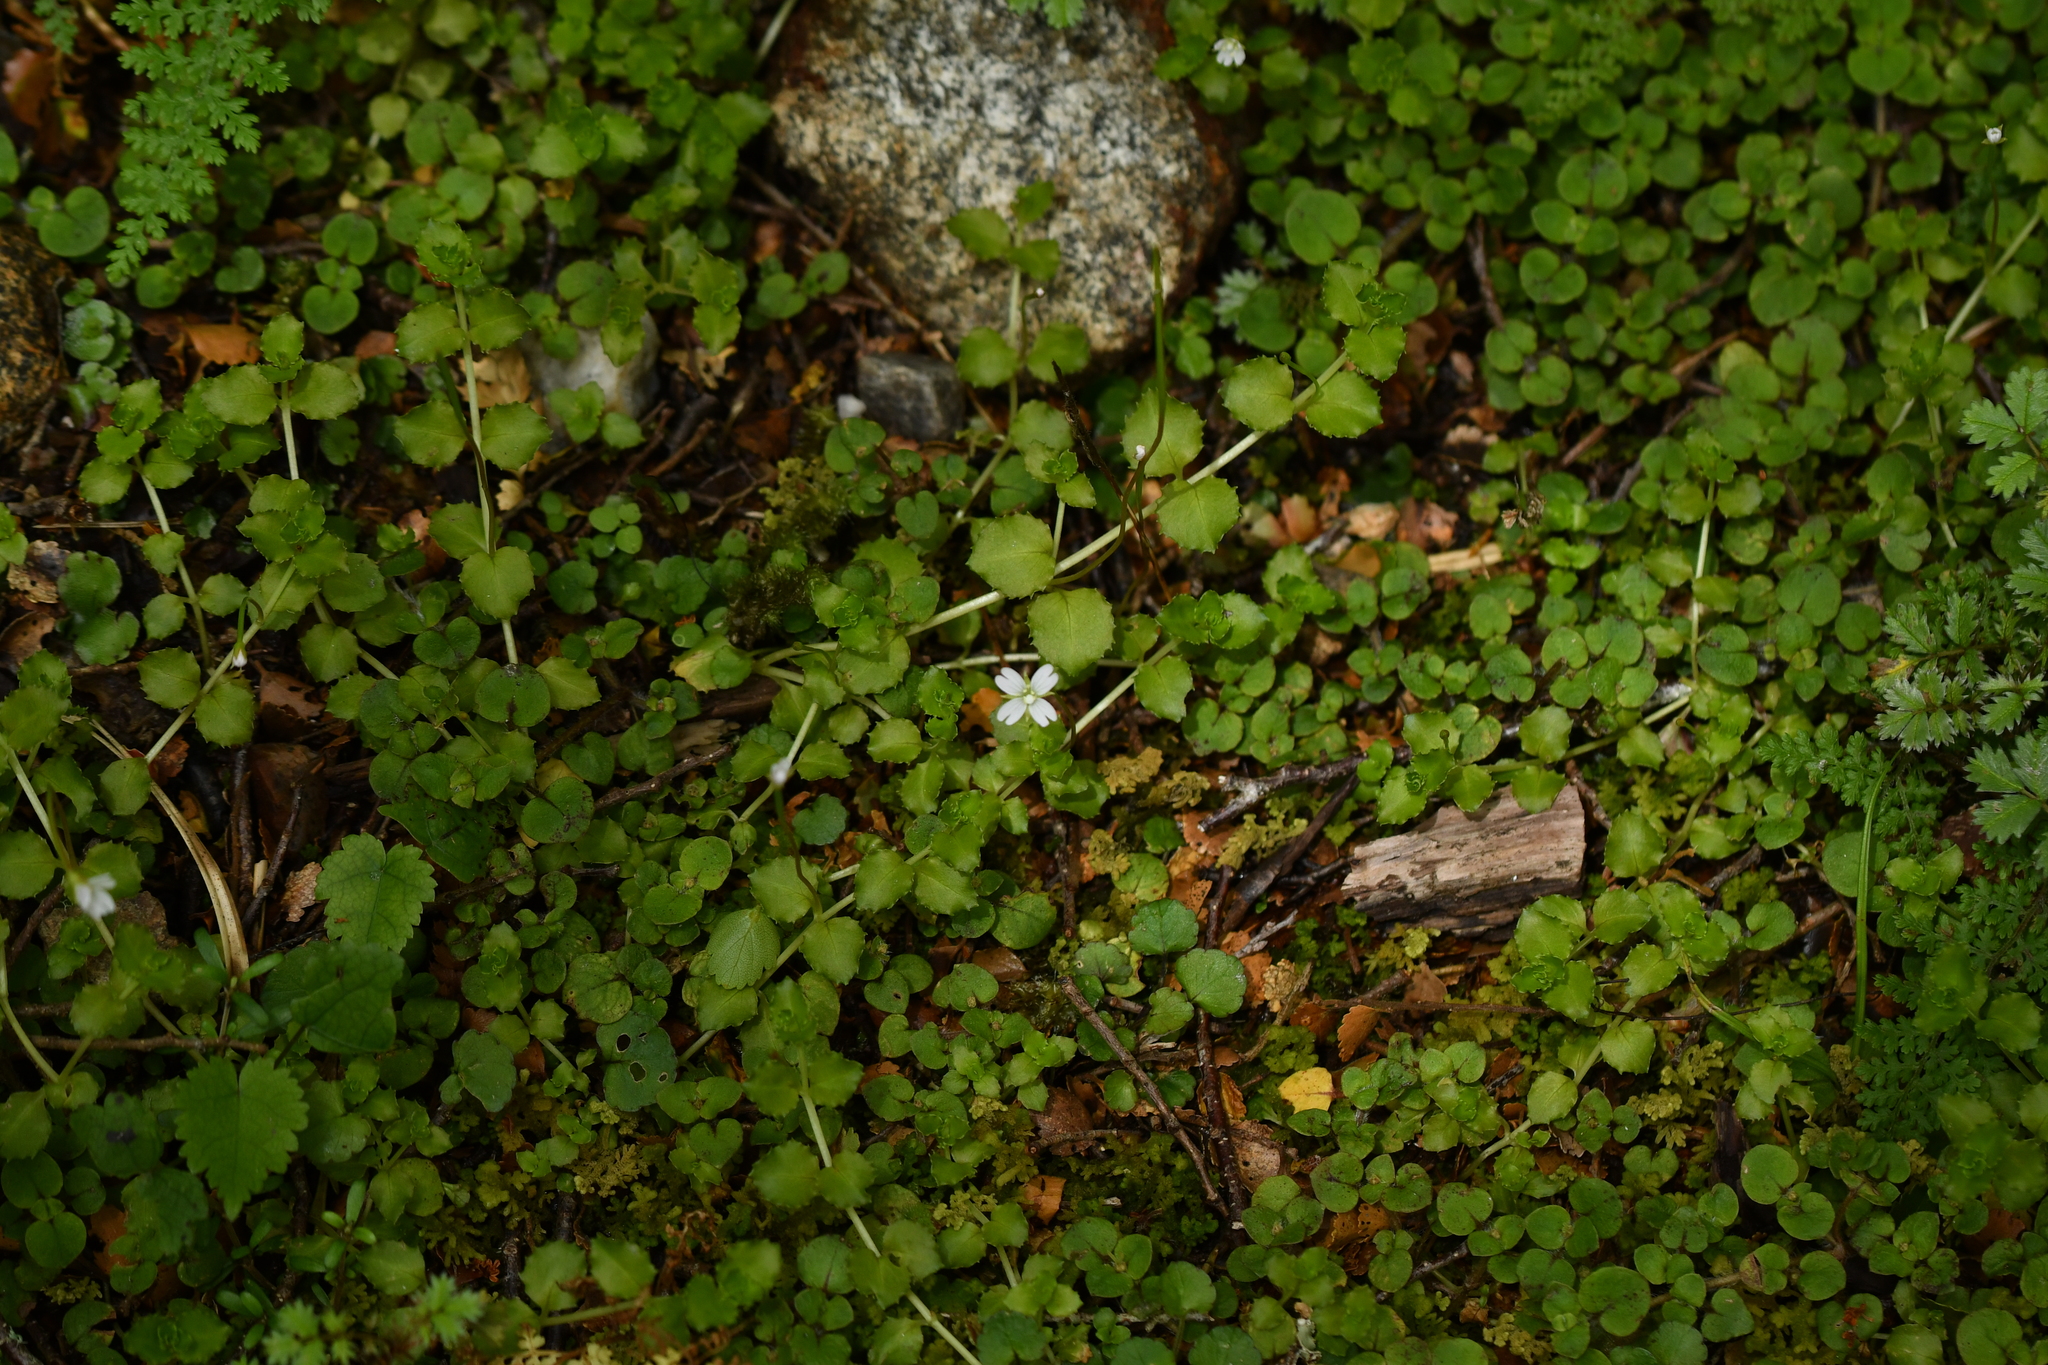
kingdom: Plantae
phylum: Tracheophyta
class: Magnoliopsida
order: Myrtales
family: Onagraceae
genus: Epilobium
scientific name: Epilobium pedunculare
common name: Rockery willowherb
